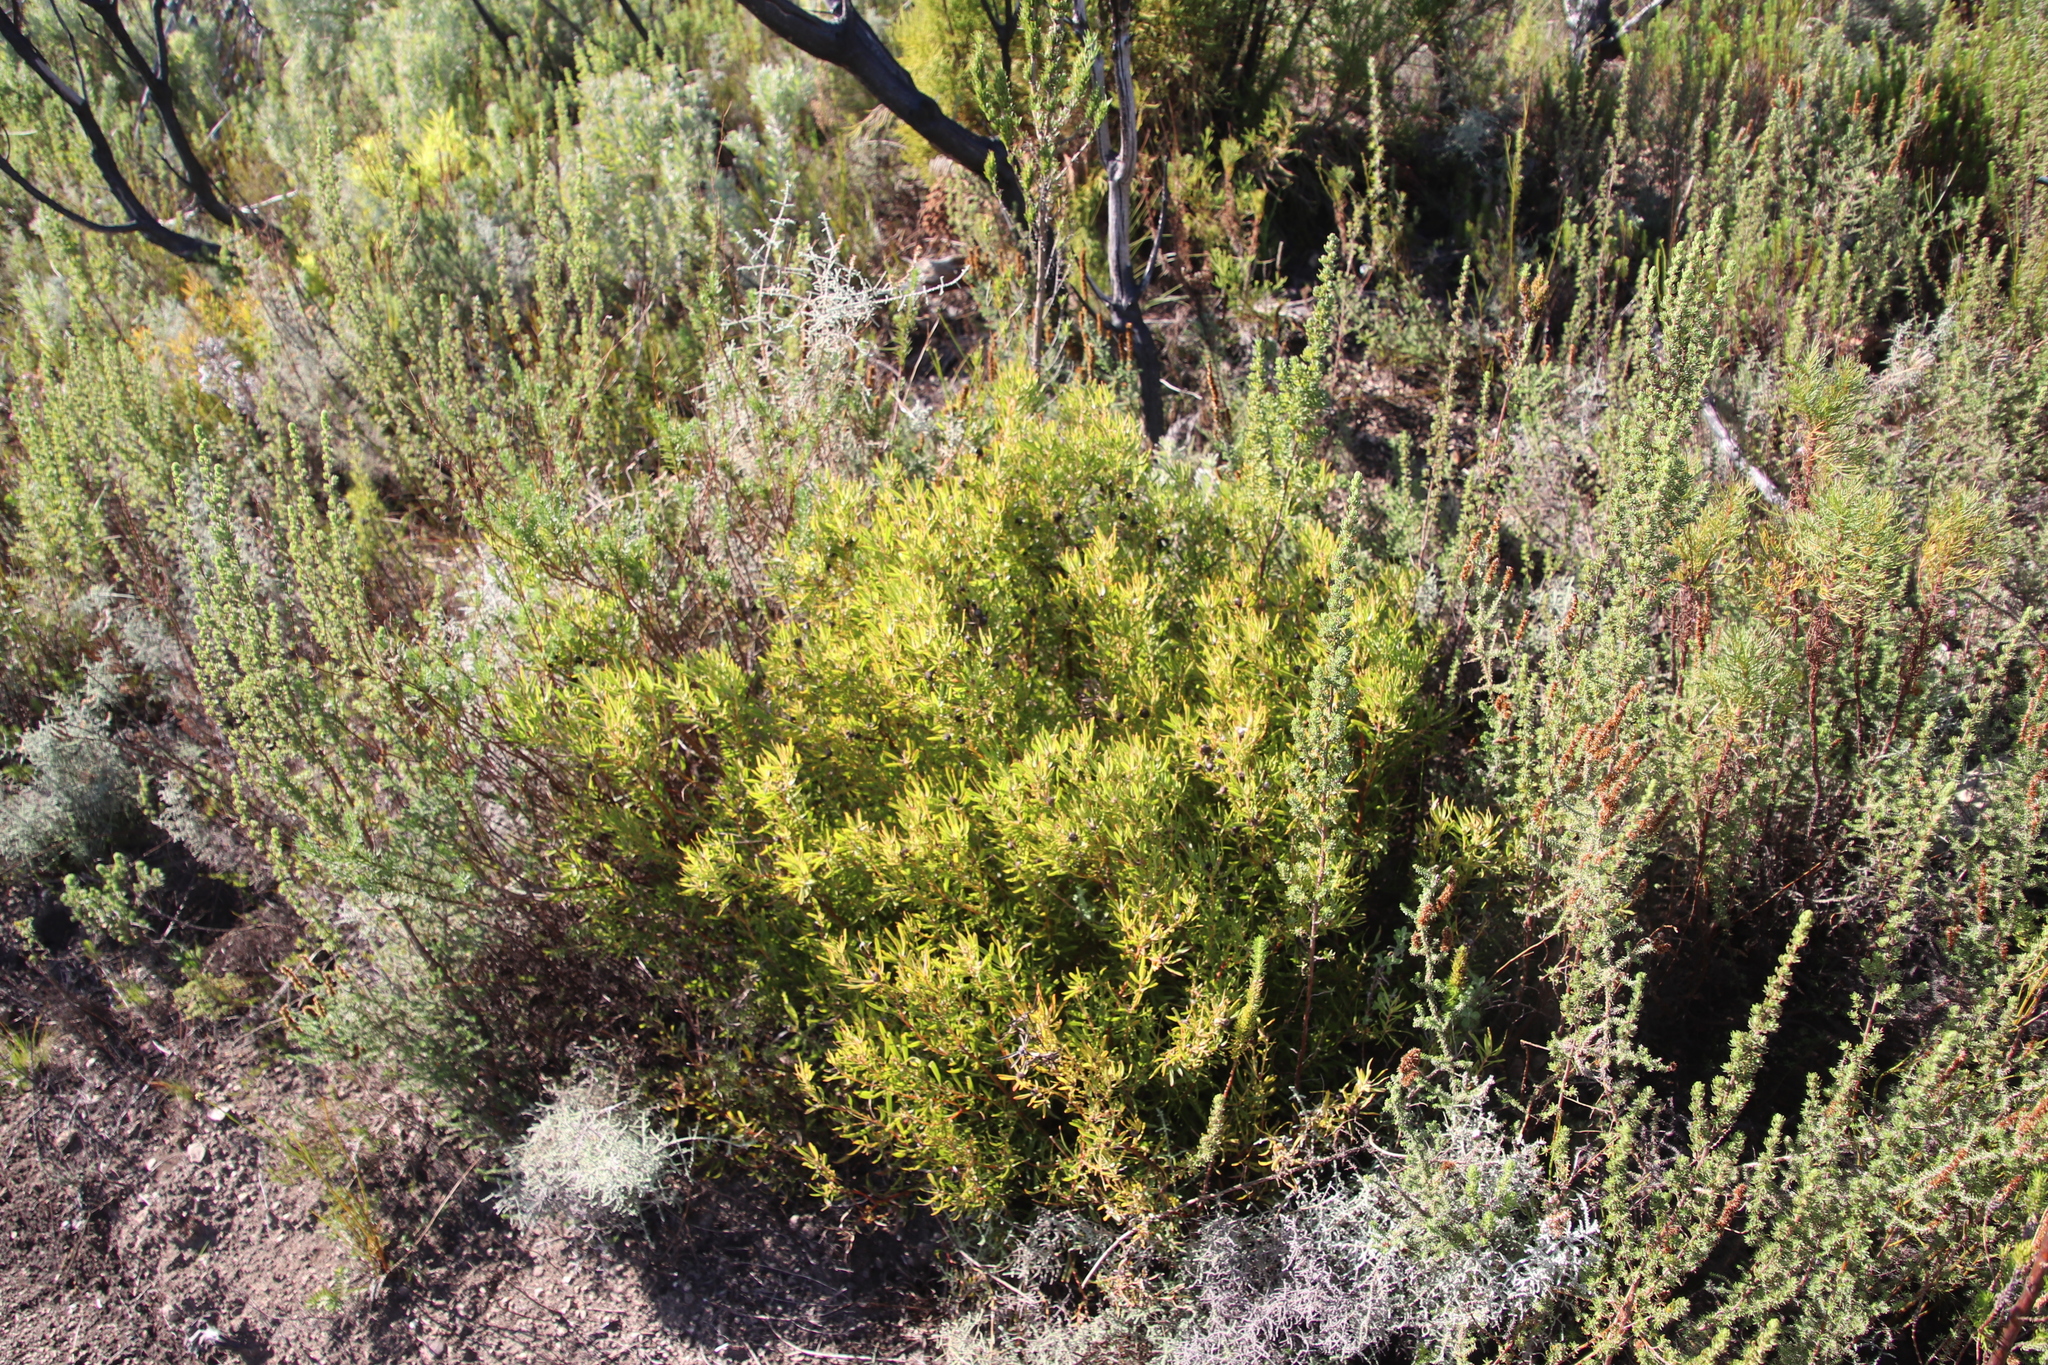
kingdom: Plantae
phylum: Tracheophyta
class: Magnoliopsida
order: Proteales
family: Proteaceae
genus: Leucadendron
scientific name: Leucadendron spissifolium
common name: Spear-leaf conebush
